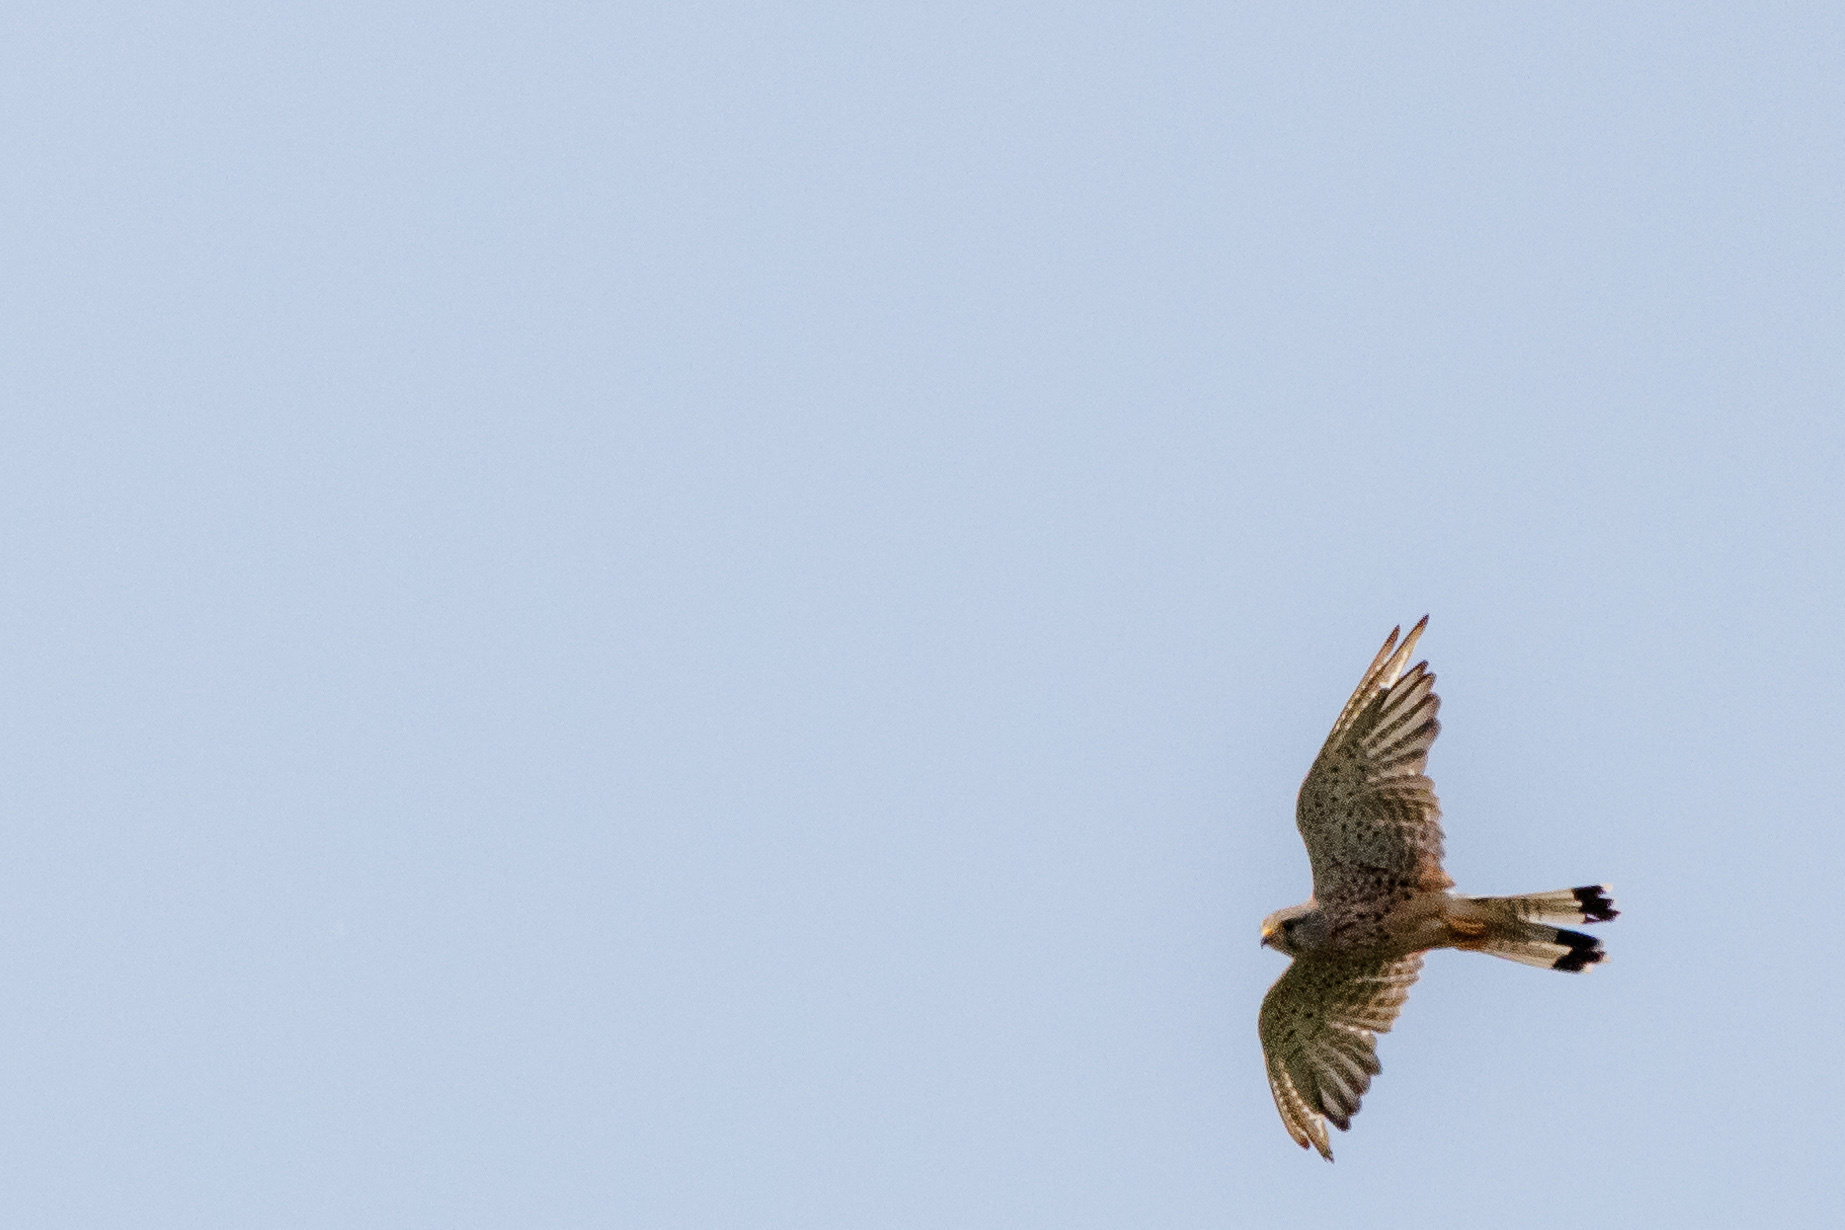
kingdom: Animalia
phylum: Chordata
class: Aves
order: Falconiformes
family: Falconidae
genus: Falco
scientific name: Falco tinnunculus
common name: Common kestrel
